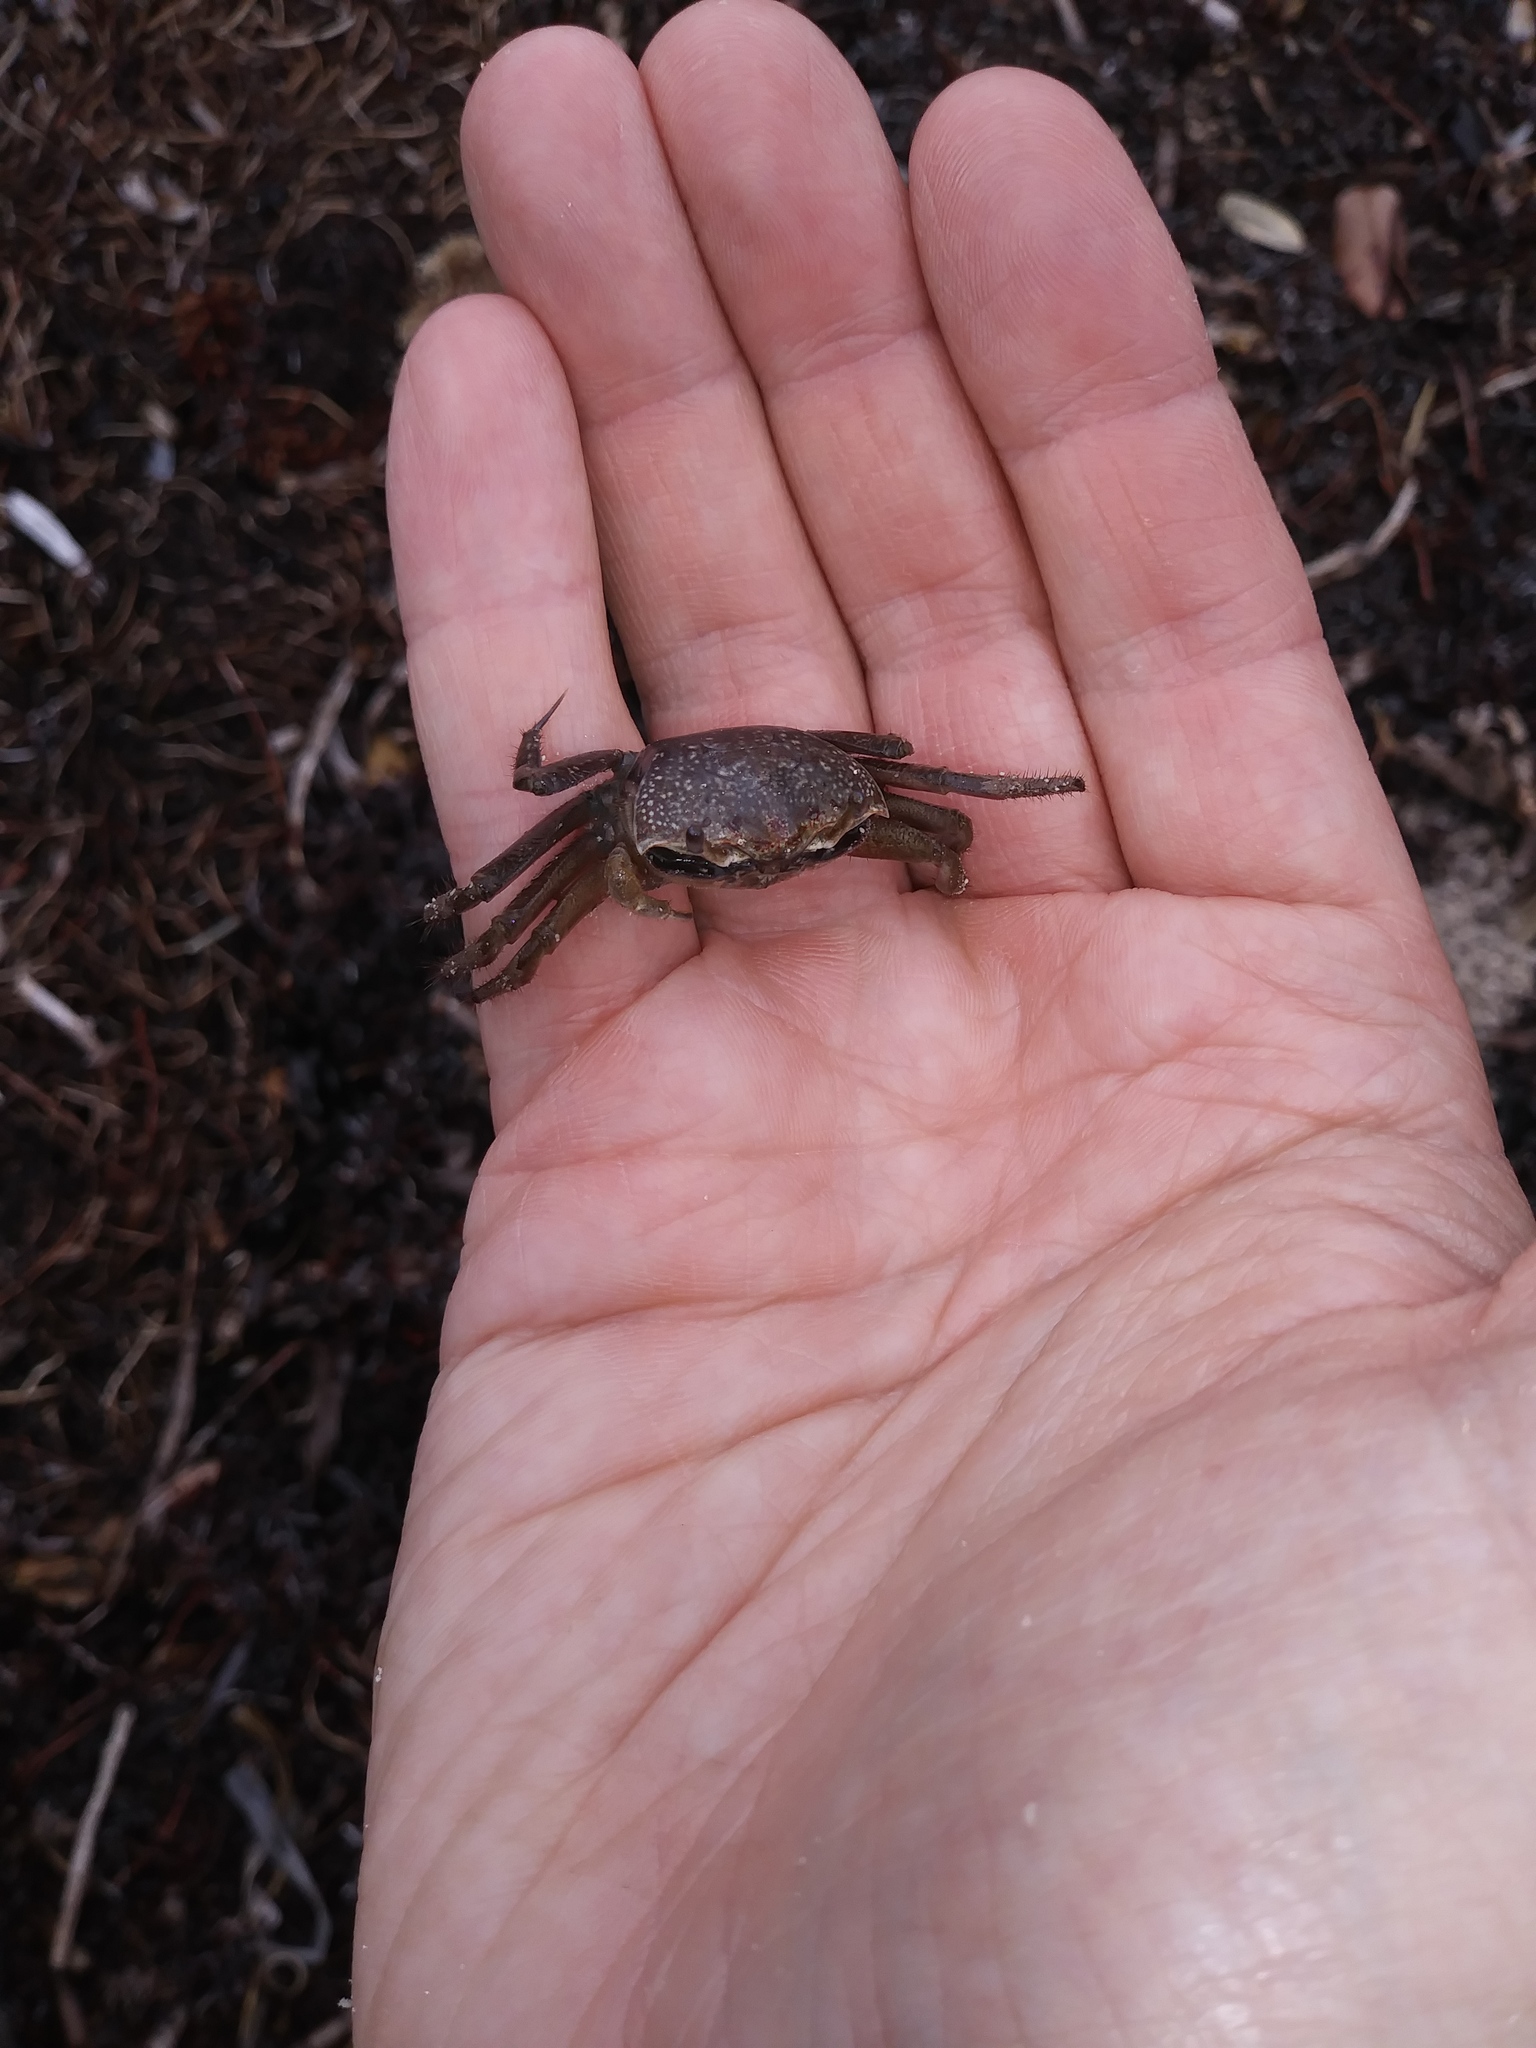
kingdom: Animalia
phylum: Arthropoda
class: Malacostraca
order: Decapoda
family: Sesarmidae
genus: Aratus
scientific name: Aratus pisonii
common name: Mangrove crab
